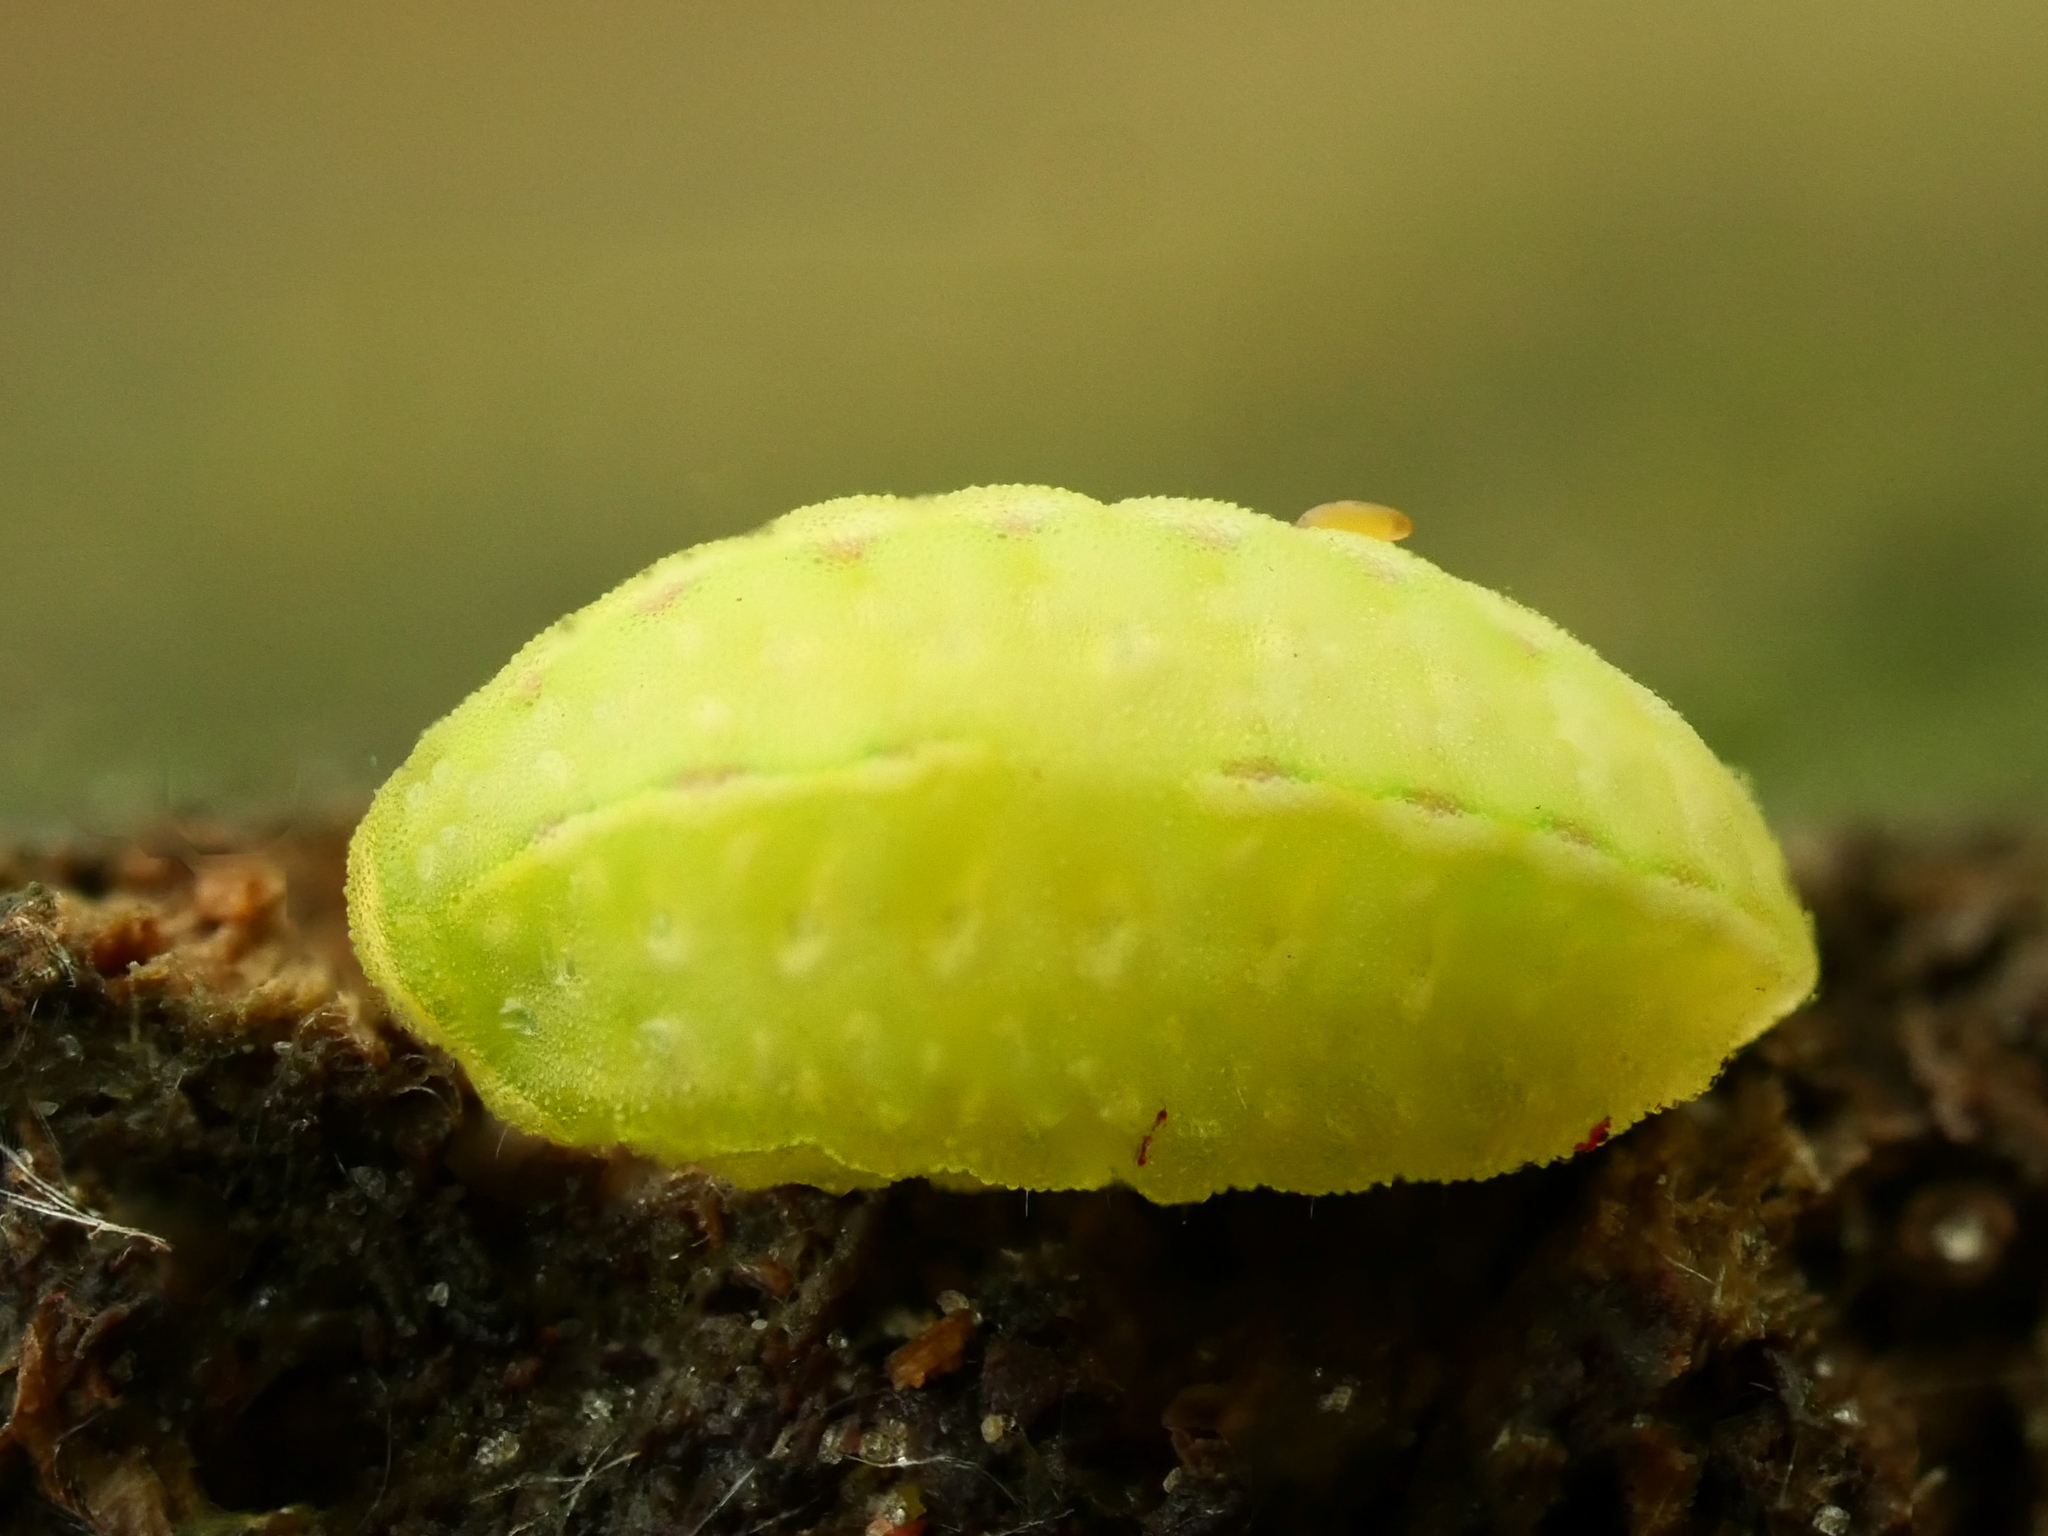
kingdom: Animalia
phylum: Arthropoda
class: Insecta
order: Lepidoptera
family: Limacodidae
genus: Apoda
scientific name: Apoda limacodes
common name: Festoon
